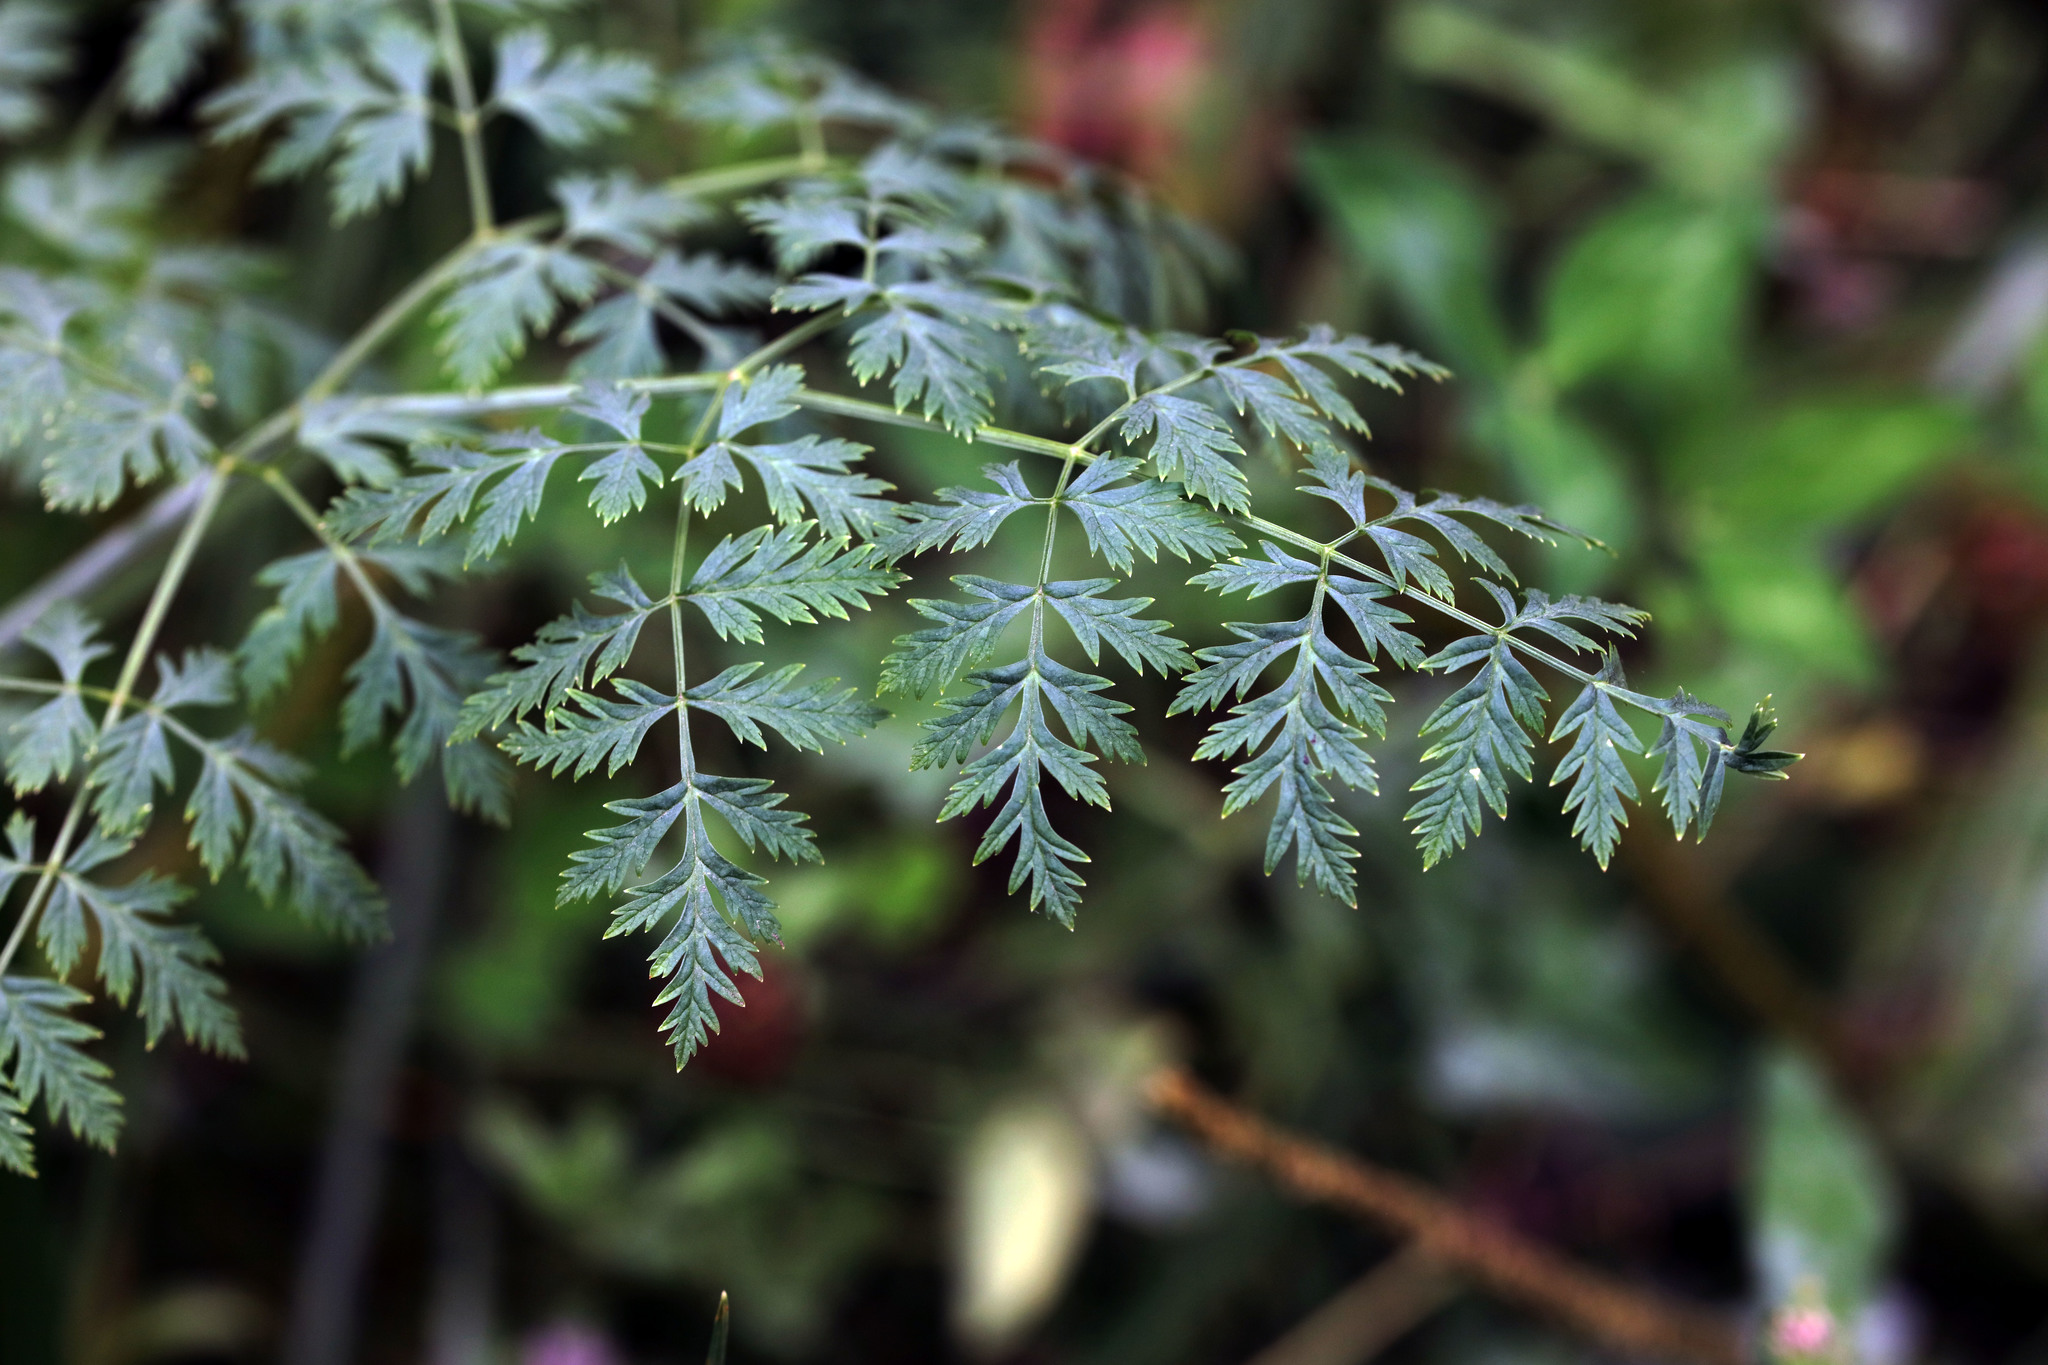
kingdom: Plantae
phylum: Tracheophyta
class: Magnoliopsida
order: Apiales
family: Apiaceae
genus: Conium
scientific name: Conium maculatum
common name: Hemlock
